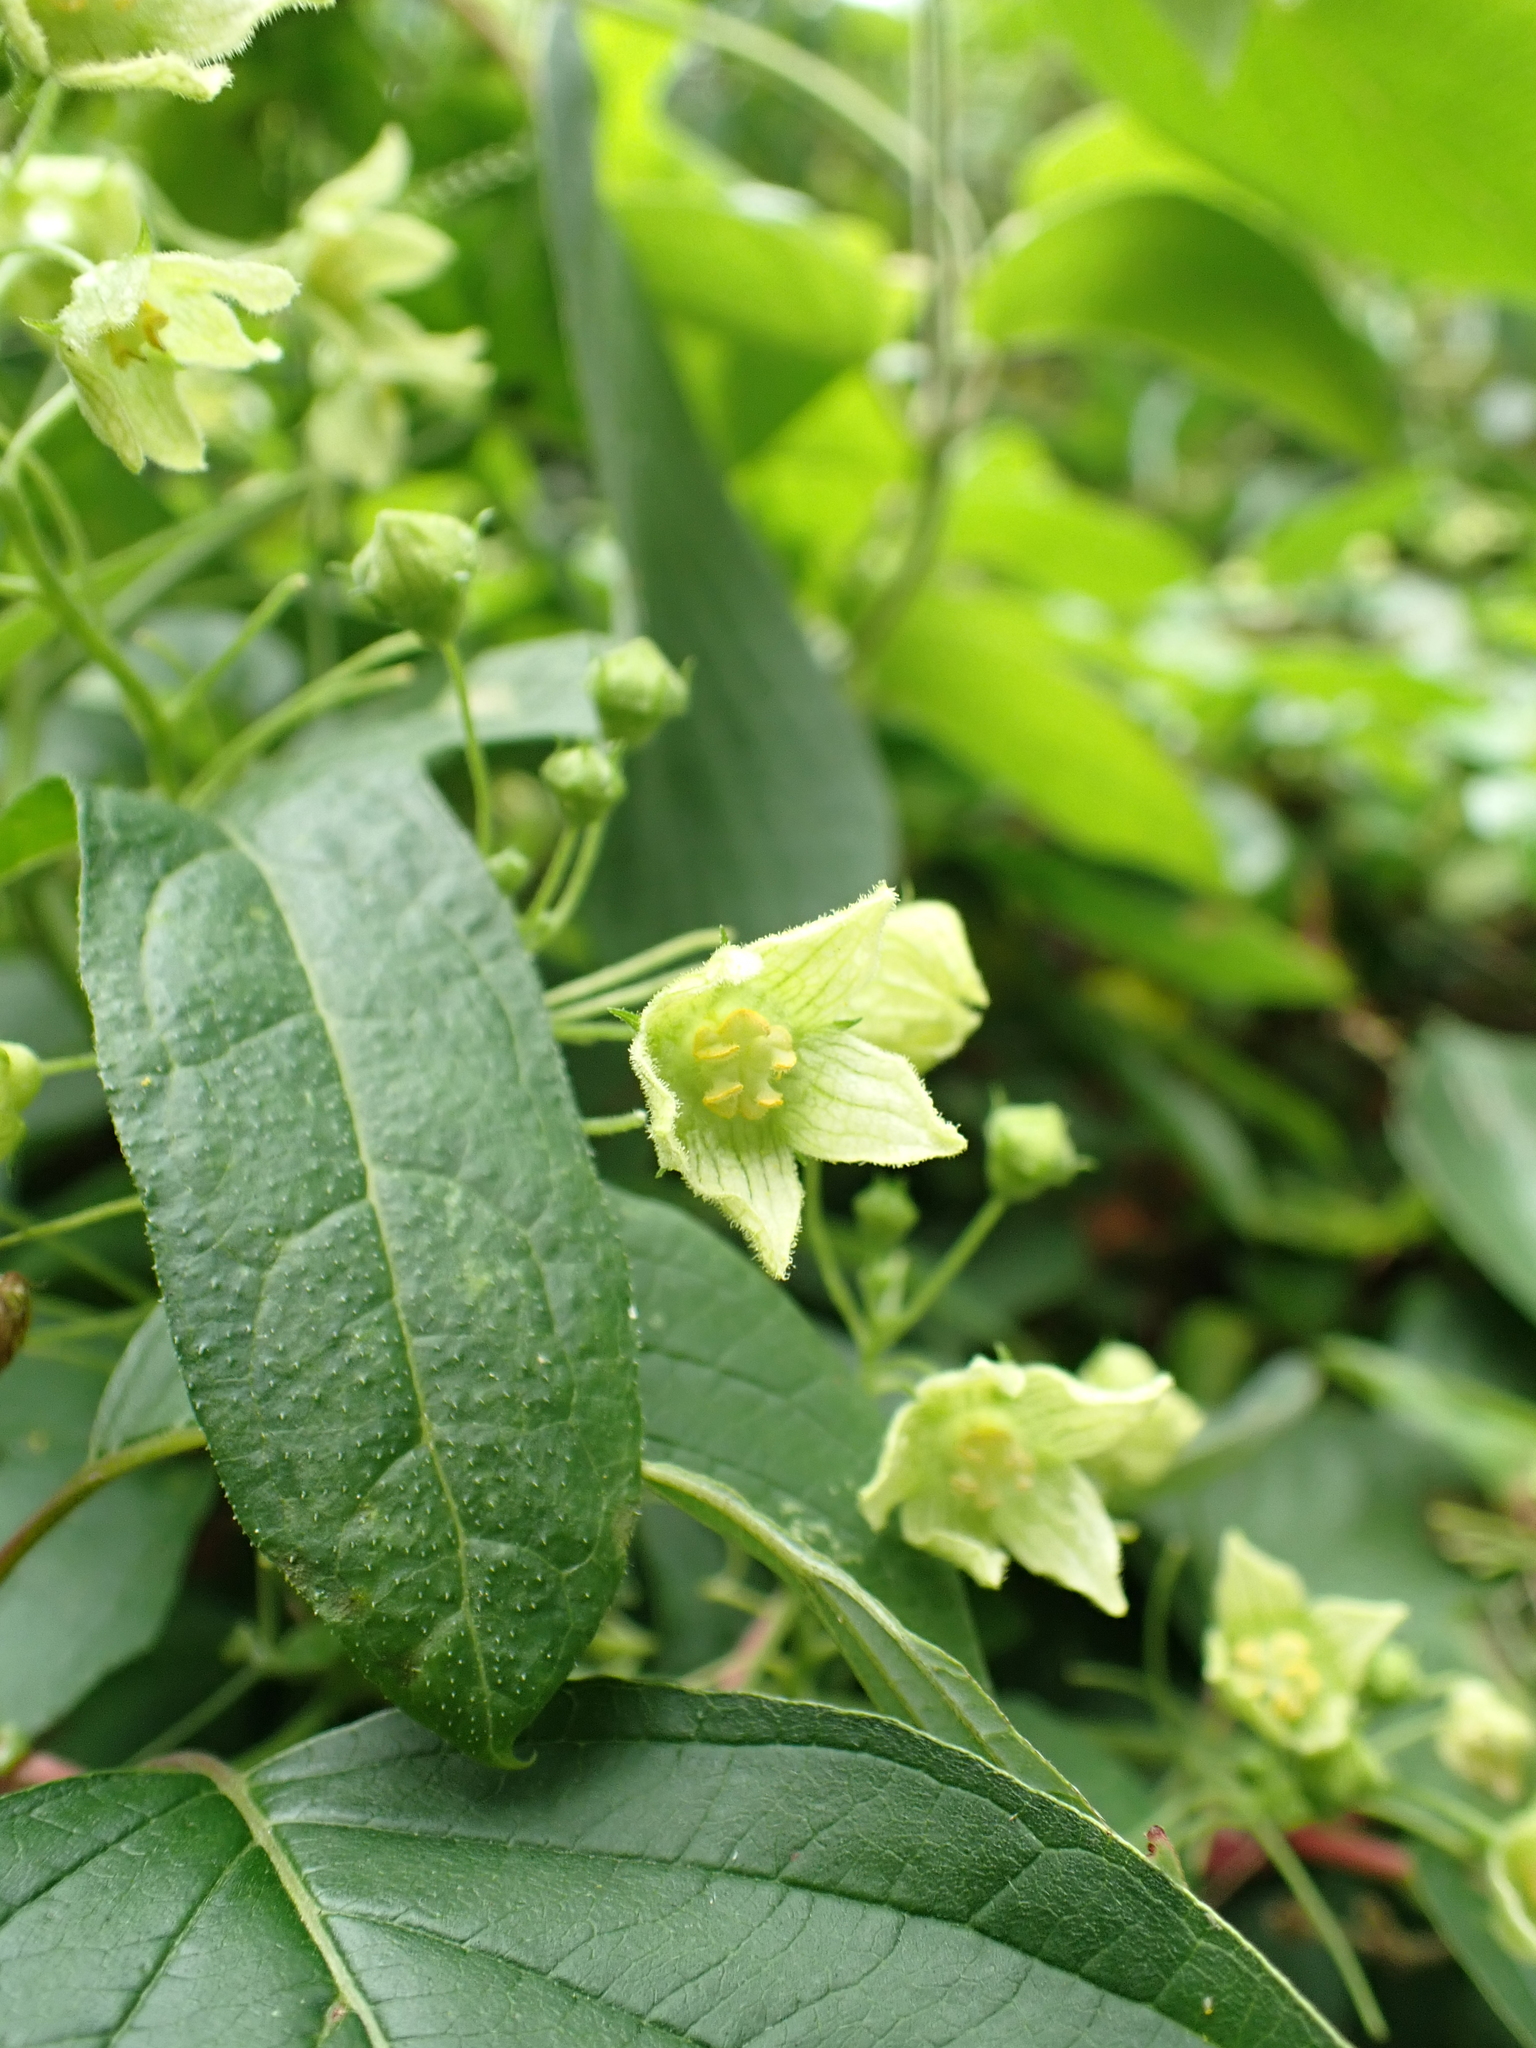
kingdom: Plantae
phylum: Tracheophyta
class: Magnoliopsida
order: Cucurbitales
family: Cucurbitaceae
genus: Bryonia
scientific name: Bryonia cretica
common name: Cretan bryony
